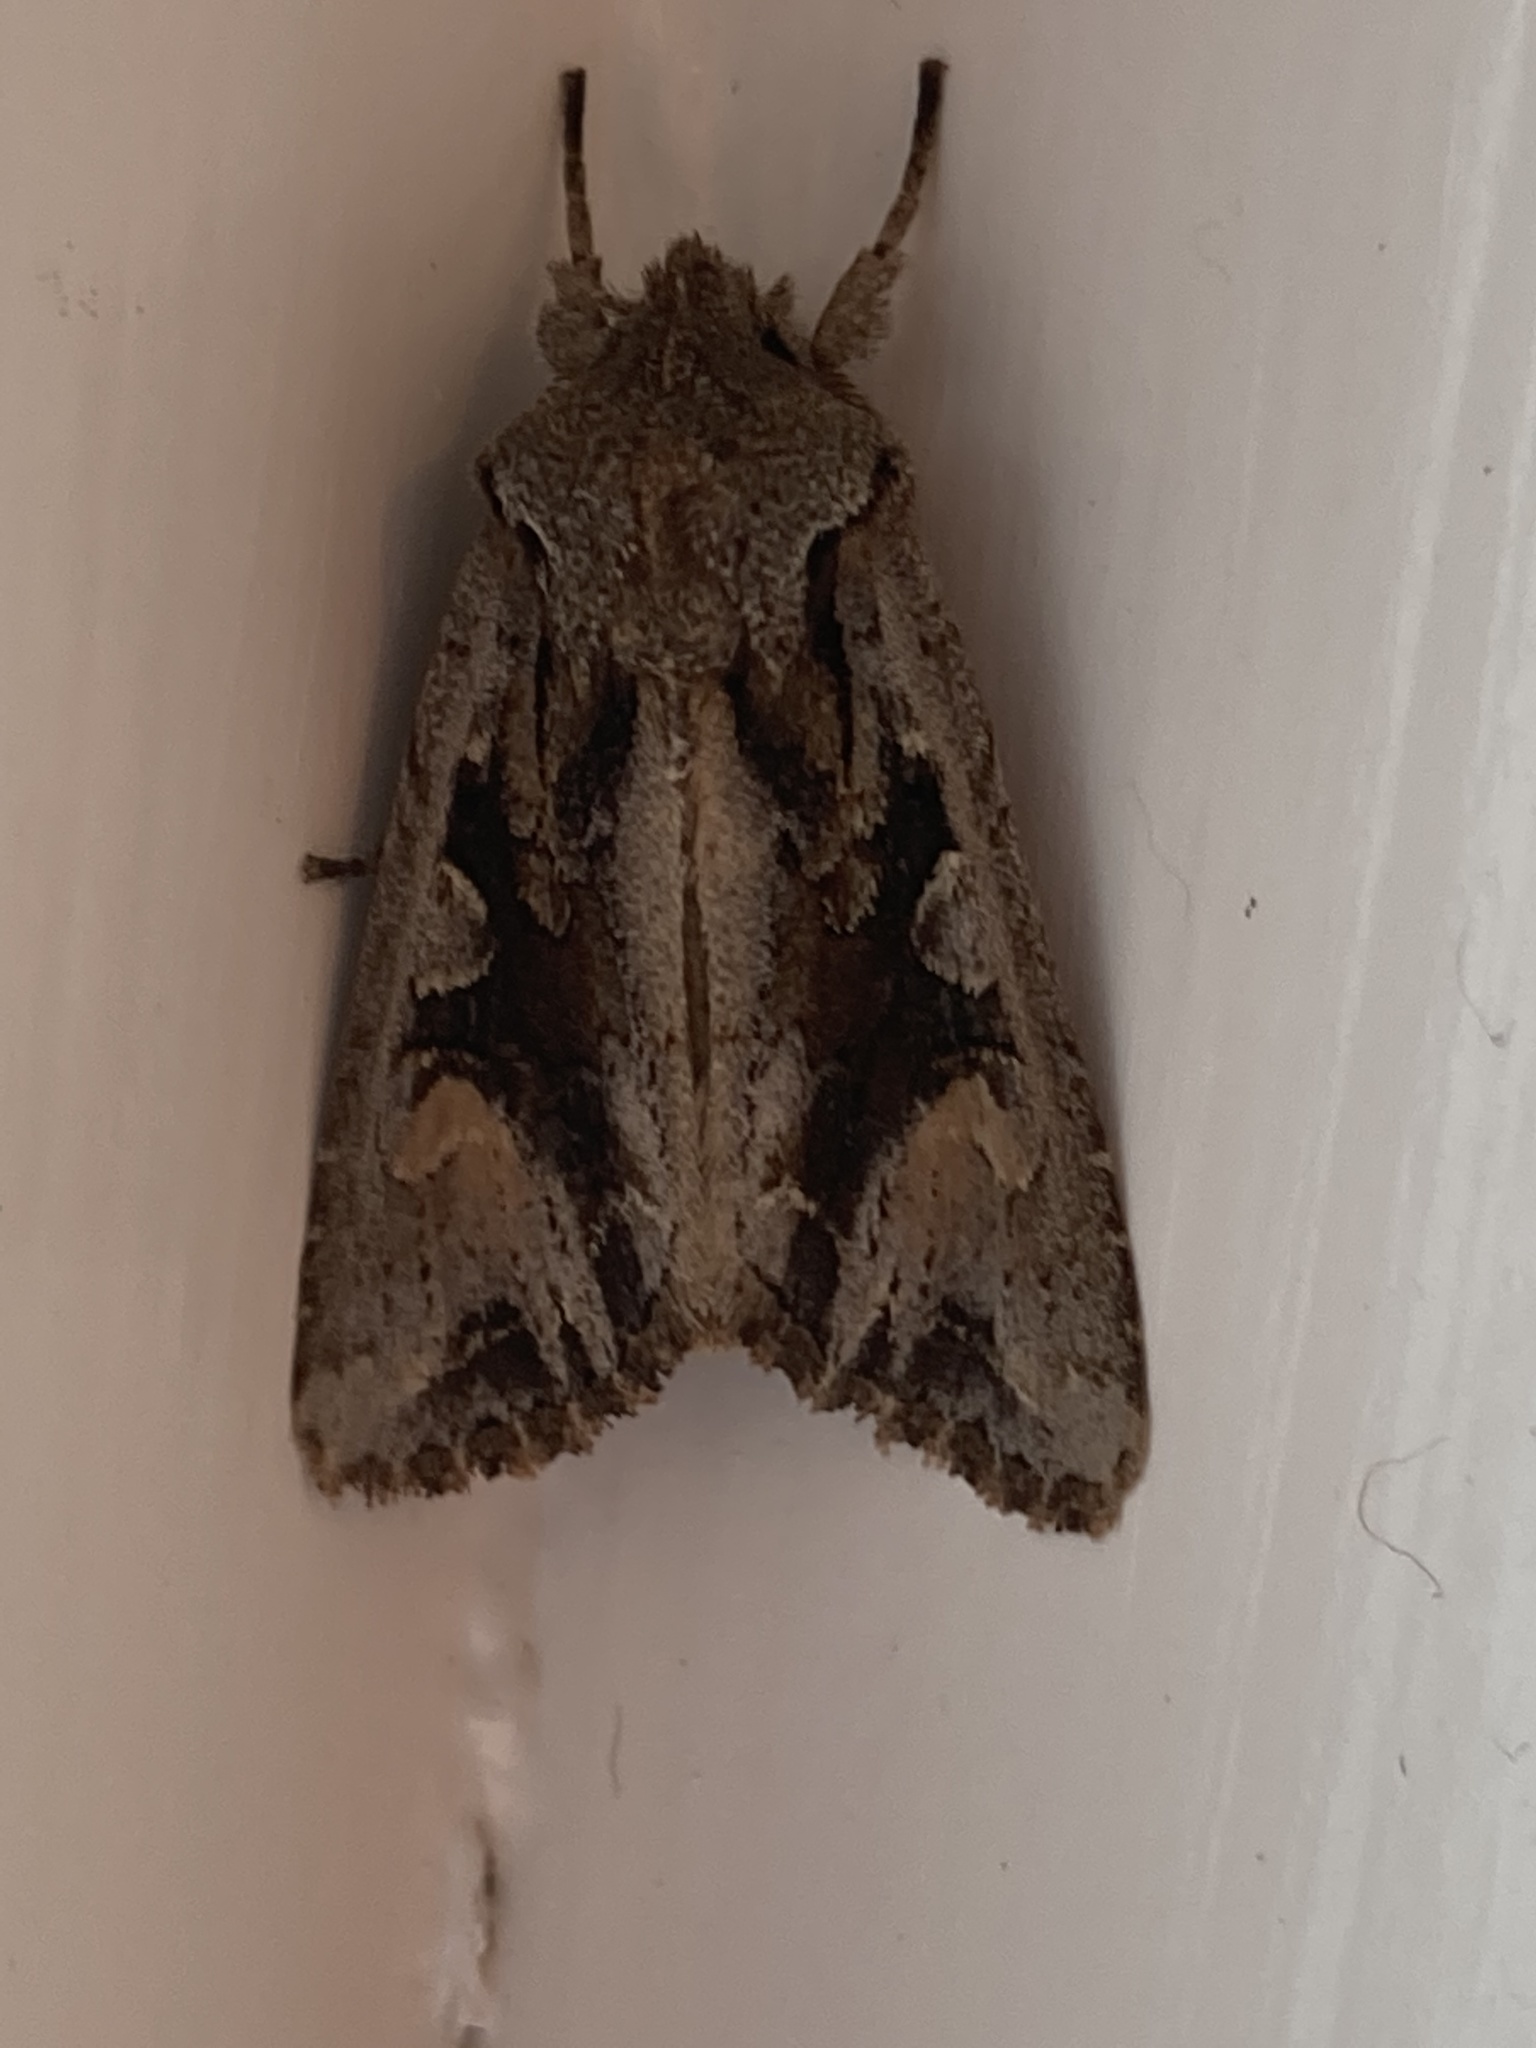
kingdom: Animalia
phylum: Arthropoda
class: Insecta
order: Lepidoptera
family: Noctuidae
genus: Ichneutica
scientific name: Ichneutica
